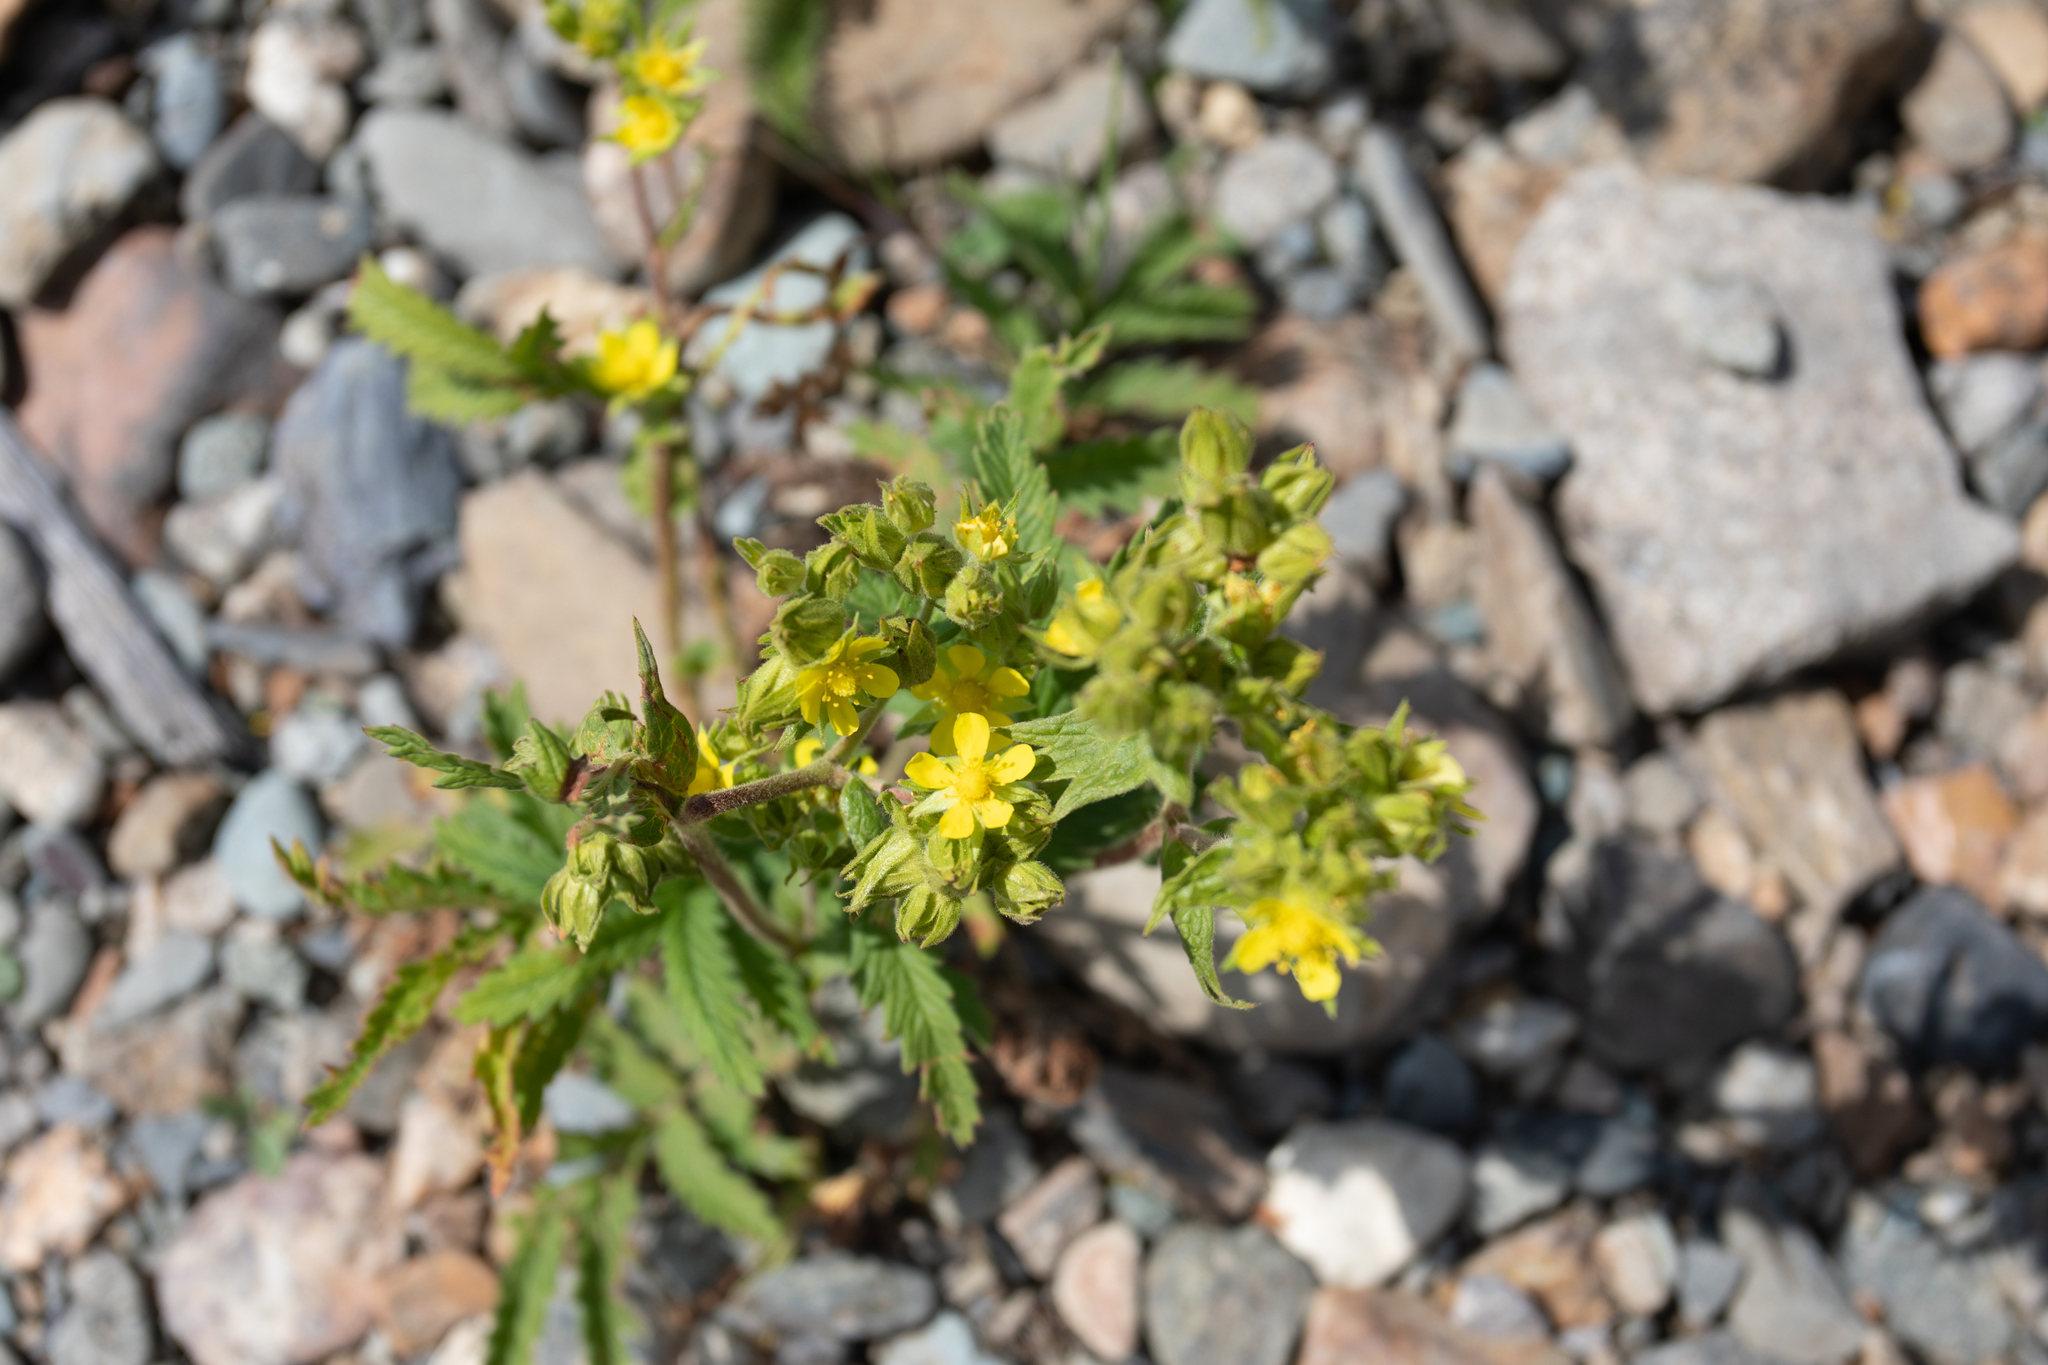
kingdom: Plantae
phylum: Tracheophyta
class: Magnoliopsida
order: Rosales
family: Rosaceae
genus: Potentilla
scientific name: Potentilla longifolia
